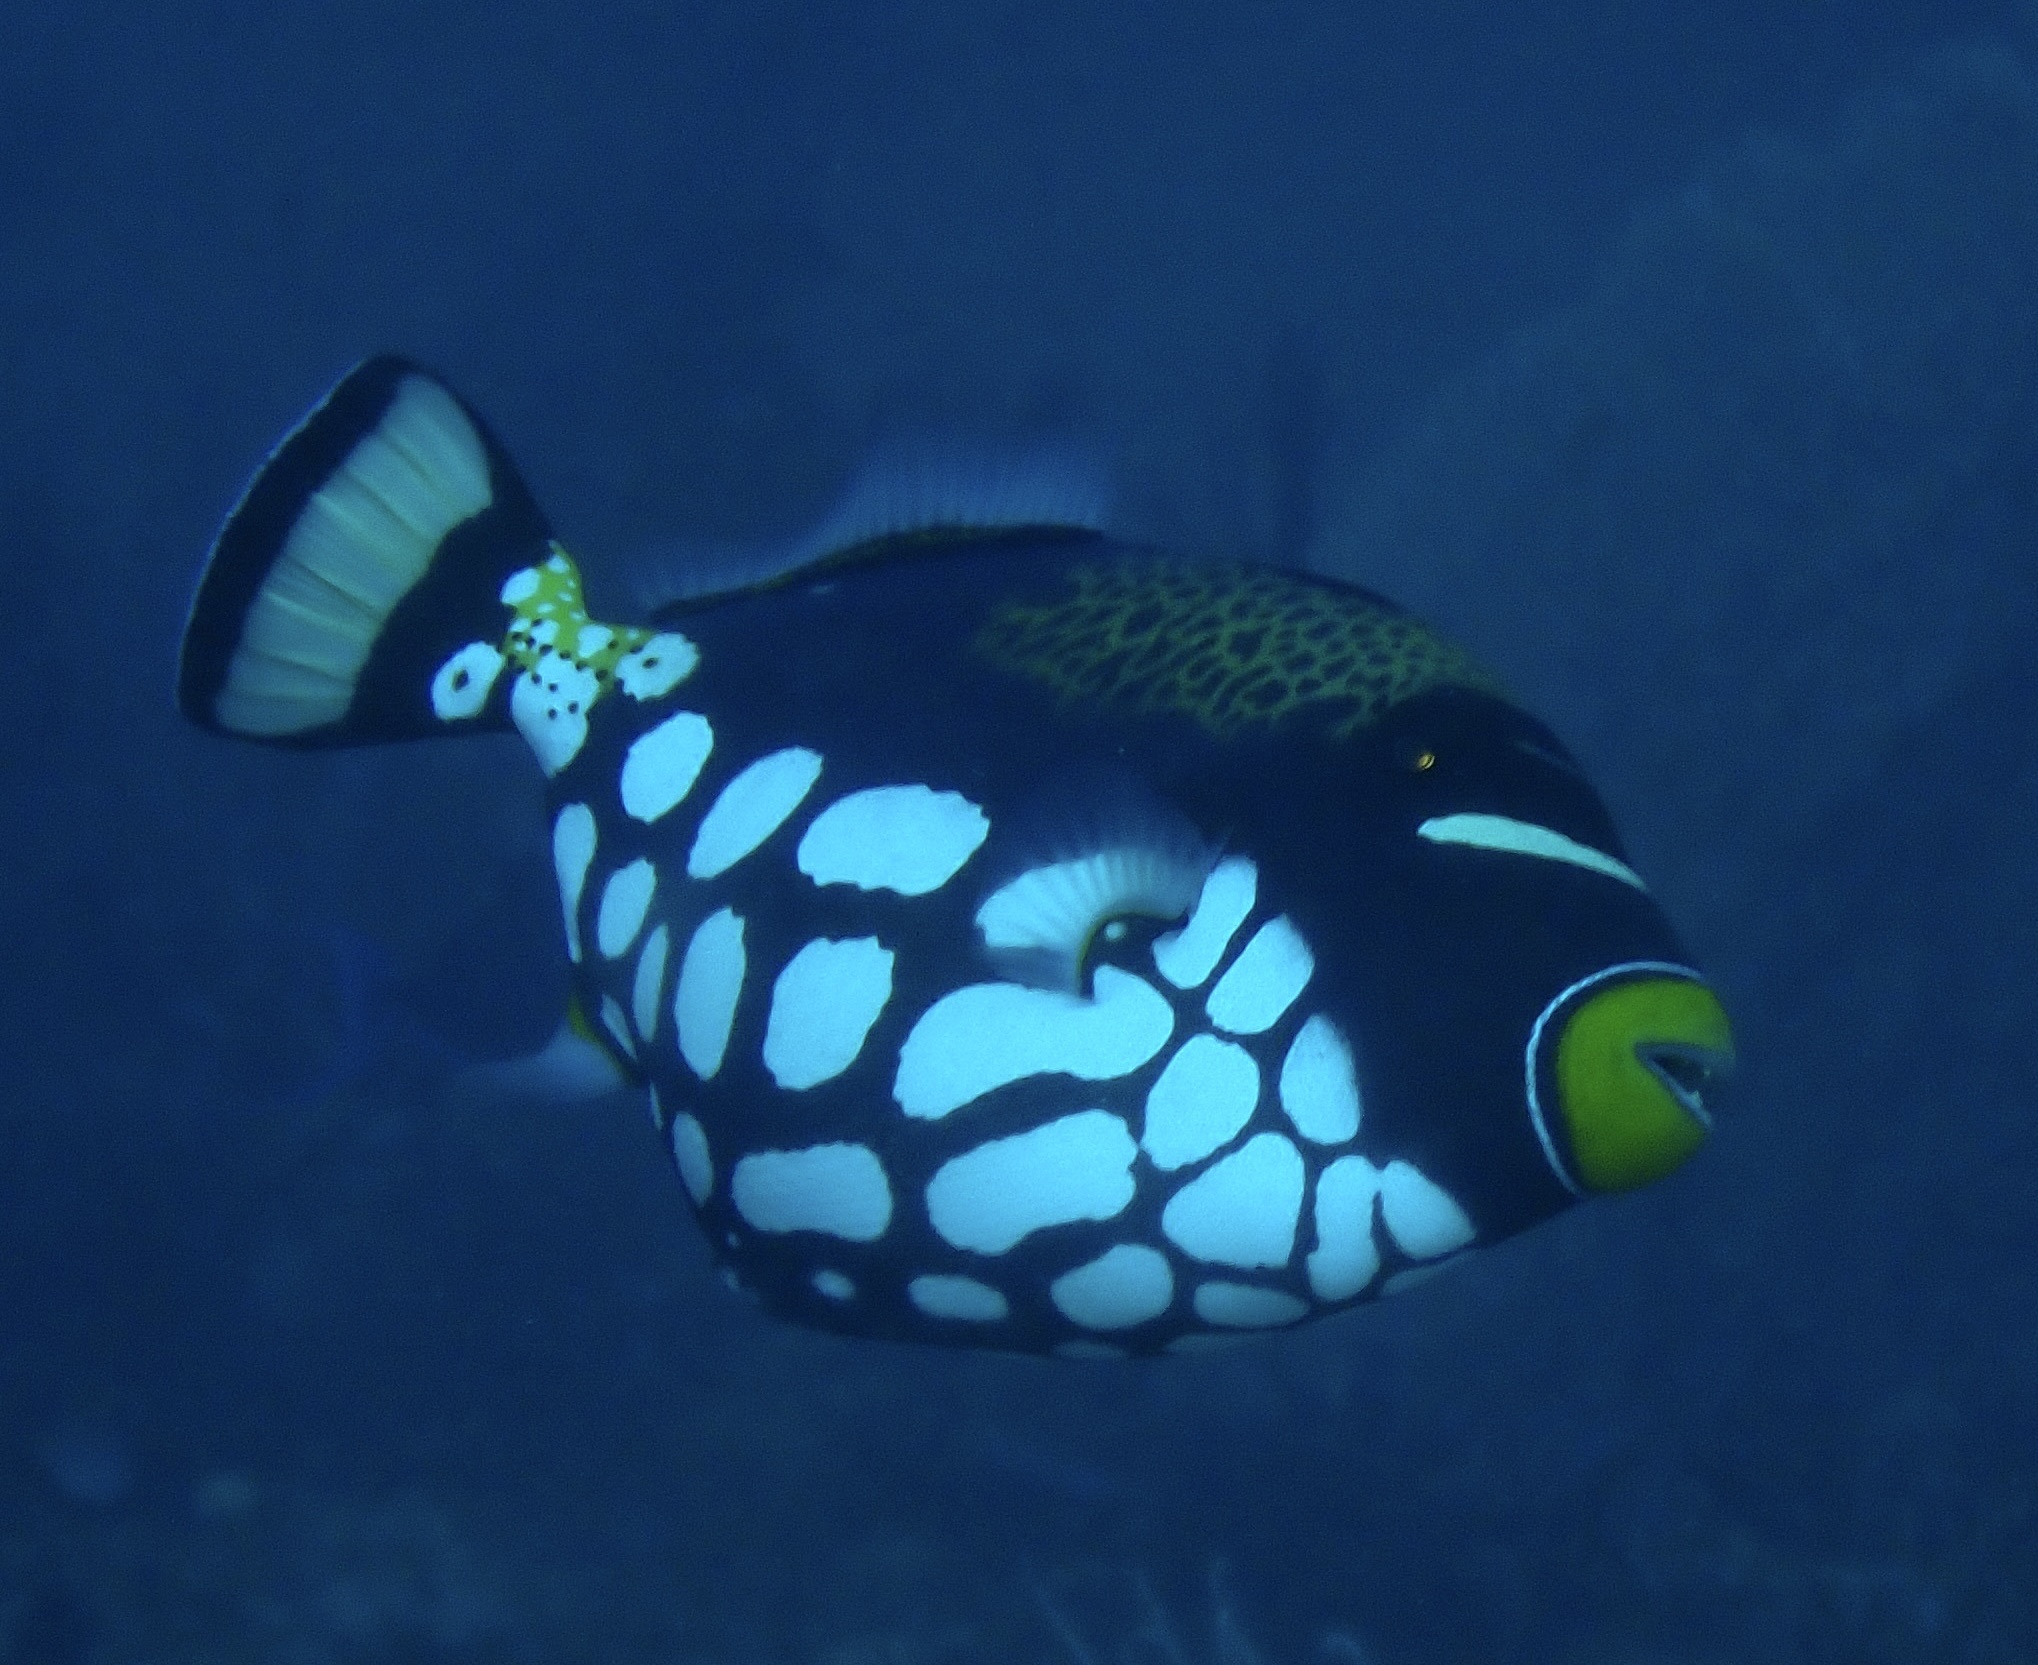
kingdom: Animalia
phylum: Chordata
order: Tetraodontiformes
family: Balistidae
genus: Balistoides
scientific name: Balistoides conspicillum
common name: Clown triggerfish
